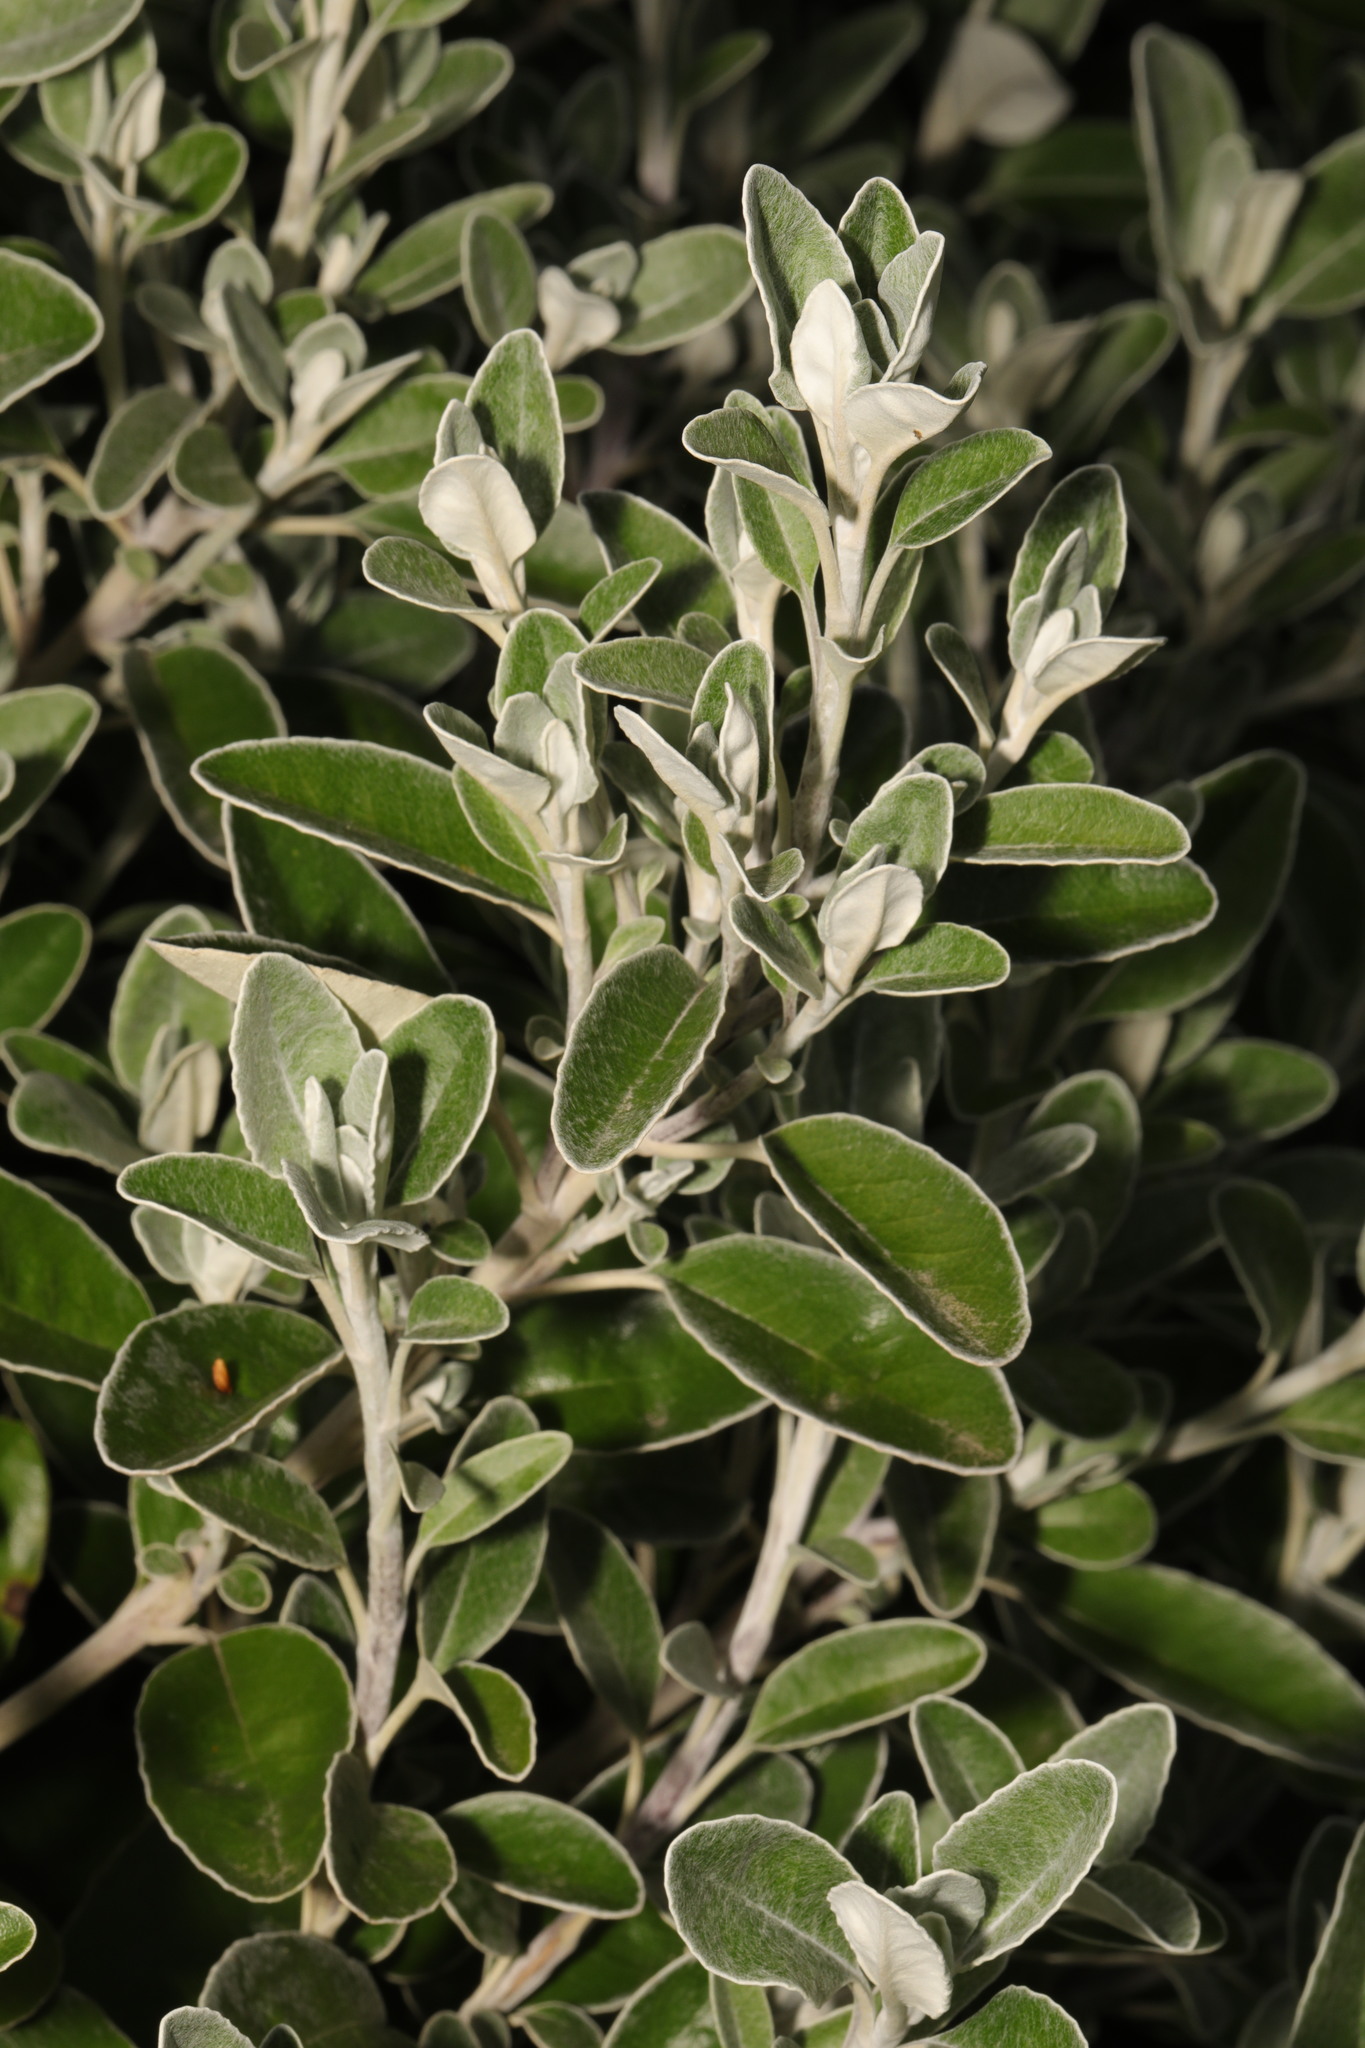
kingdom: Plantae
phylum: Tracheophyta
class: Magnoliopsida
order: Asterales
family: Asteraceae
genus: Brachyglottis
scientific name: Brachyglottis jubar
